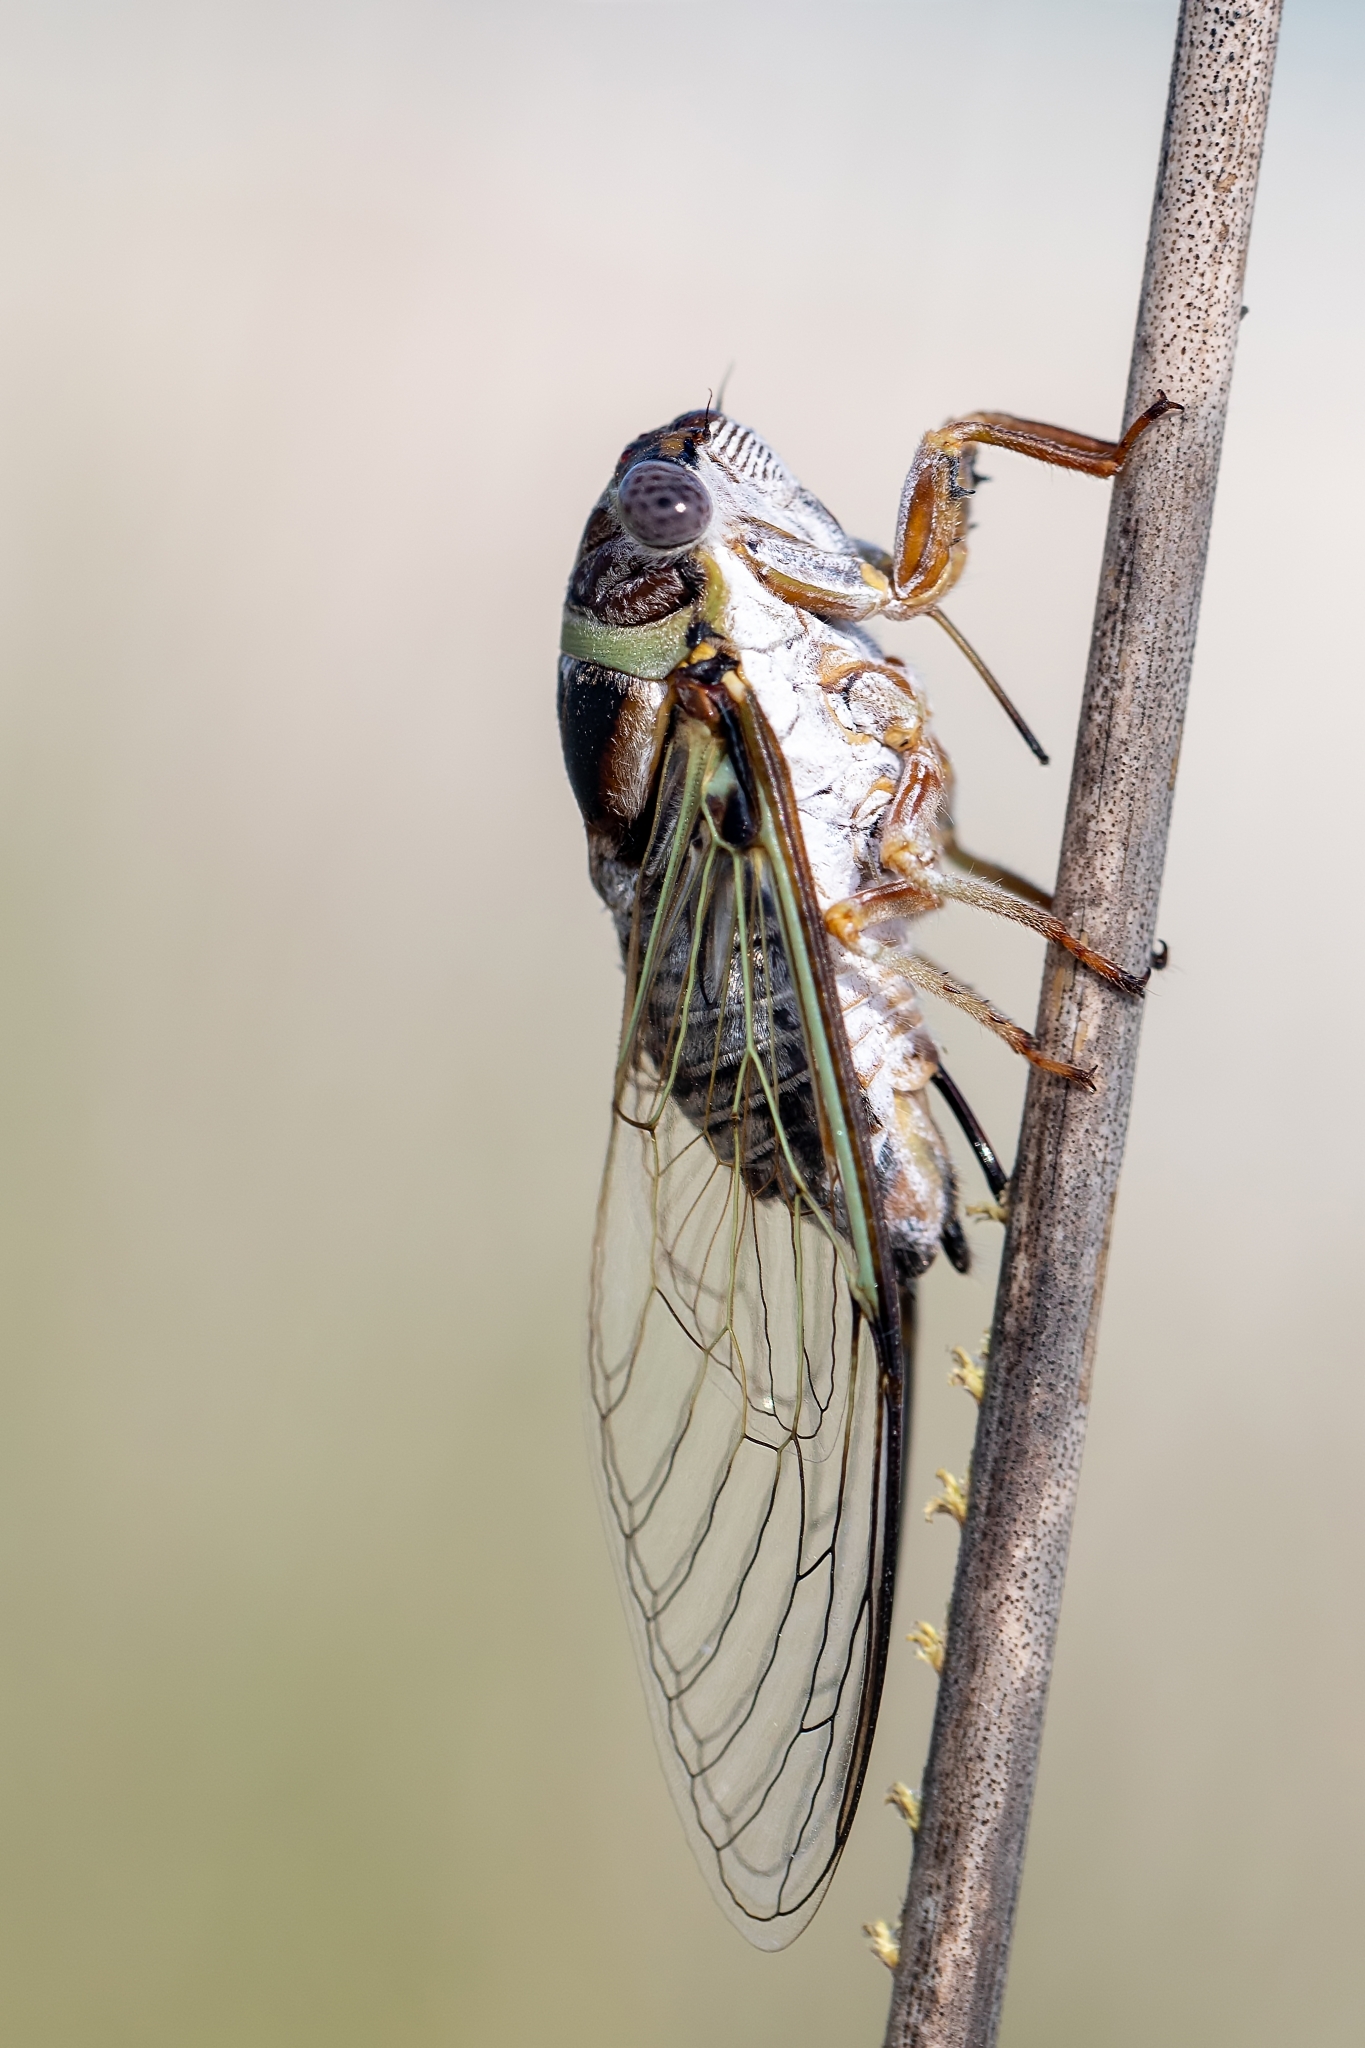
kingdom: Animalia
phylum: Arthropoda
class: Insecta
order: Hemiptera
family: Cicadidae
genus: Diceroprocta
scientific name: Diceroprocta viridifascia
